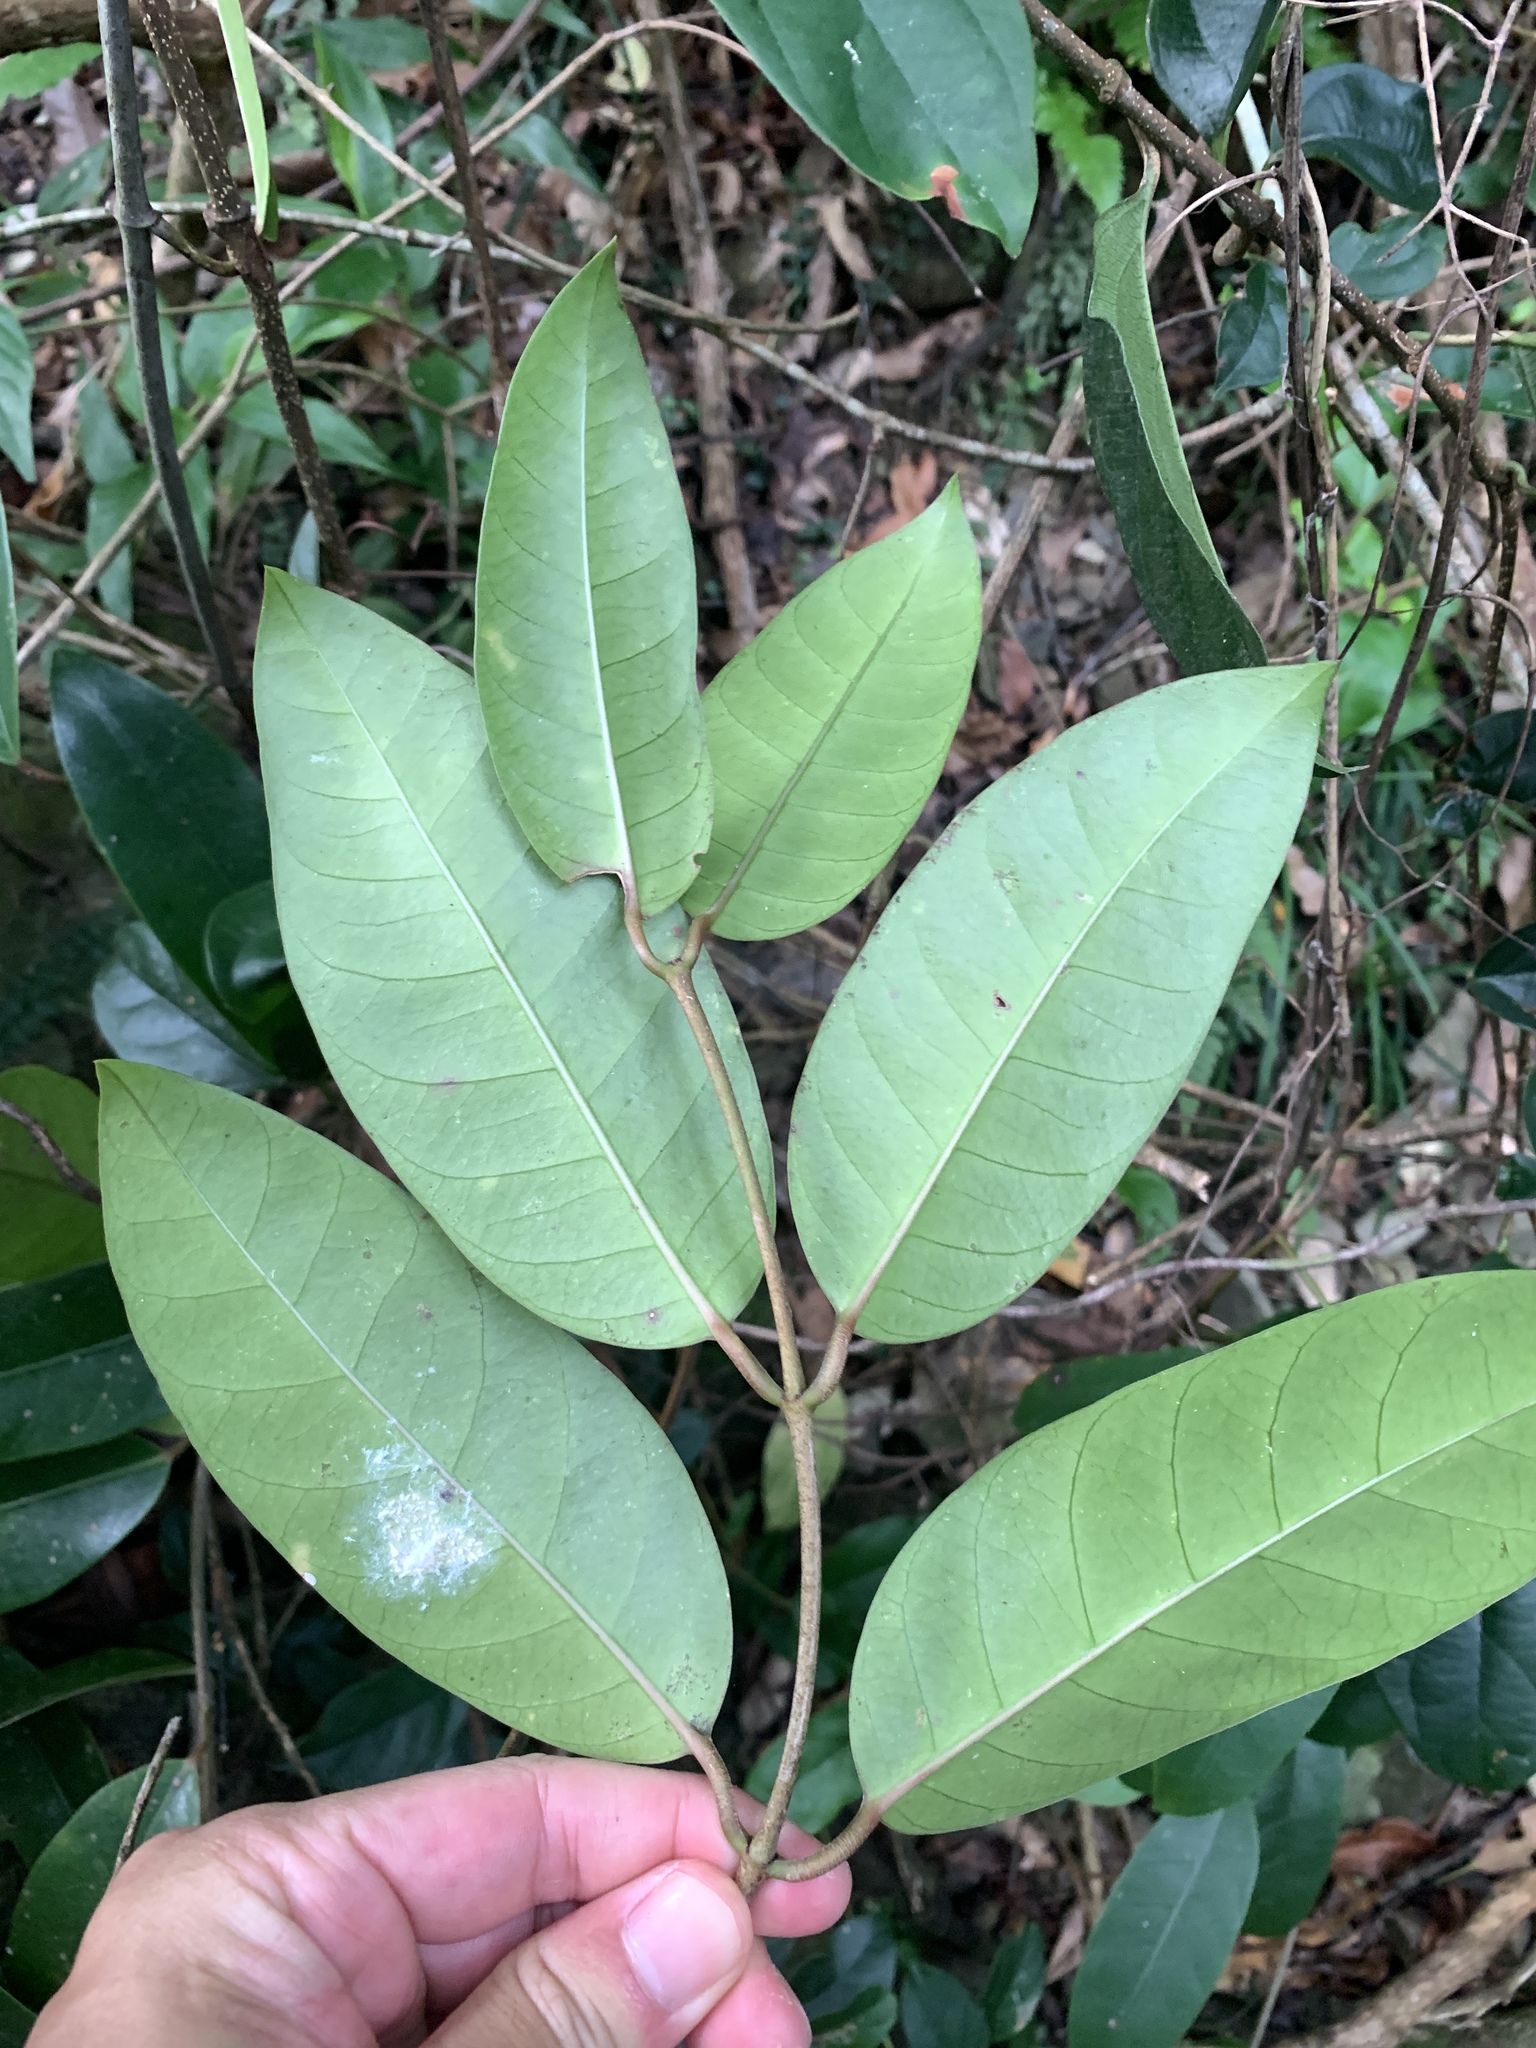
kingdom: Plantae
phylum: Tracheophyta
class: Magnoliopsida
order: Malpighiales
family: Malpighiaceae
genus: Hiptage
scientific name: Hiptage benghalensis
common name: Hiptage
